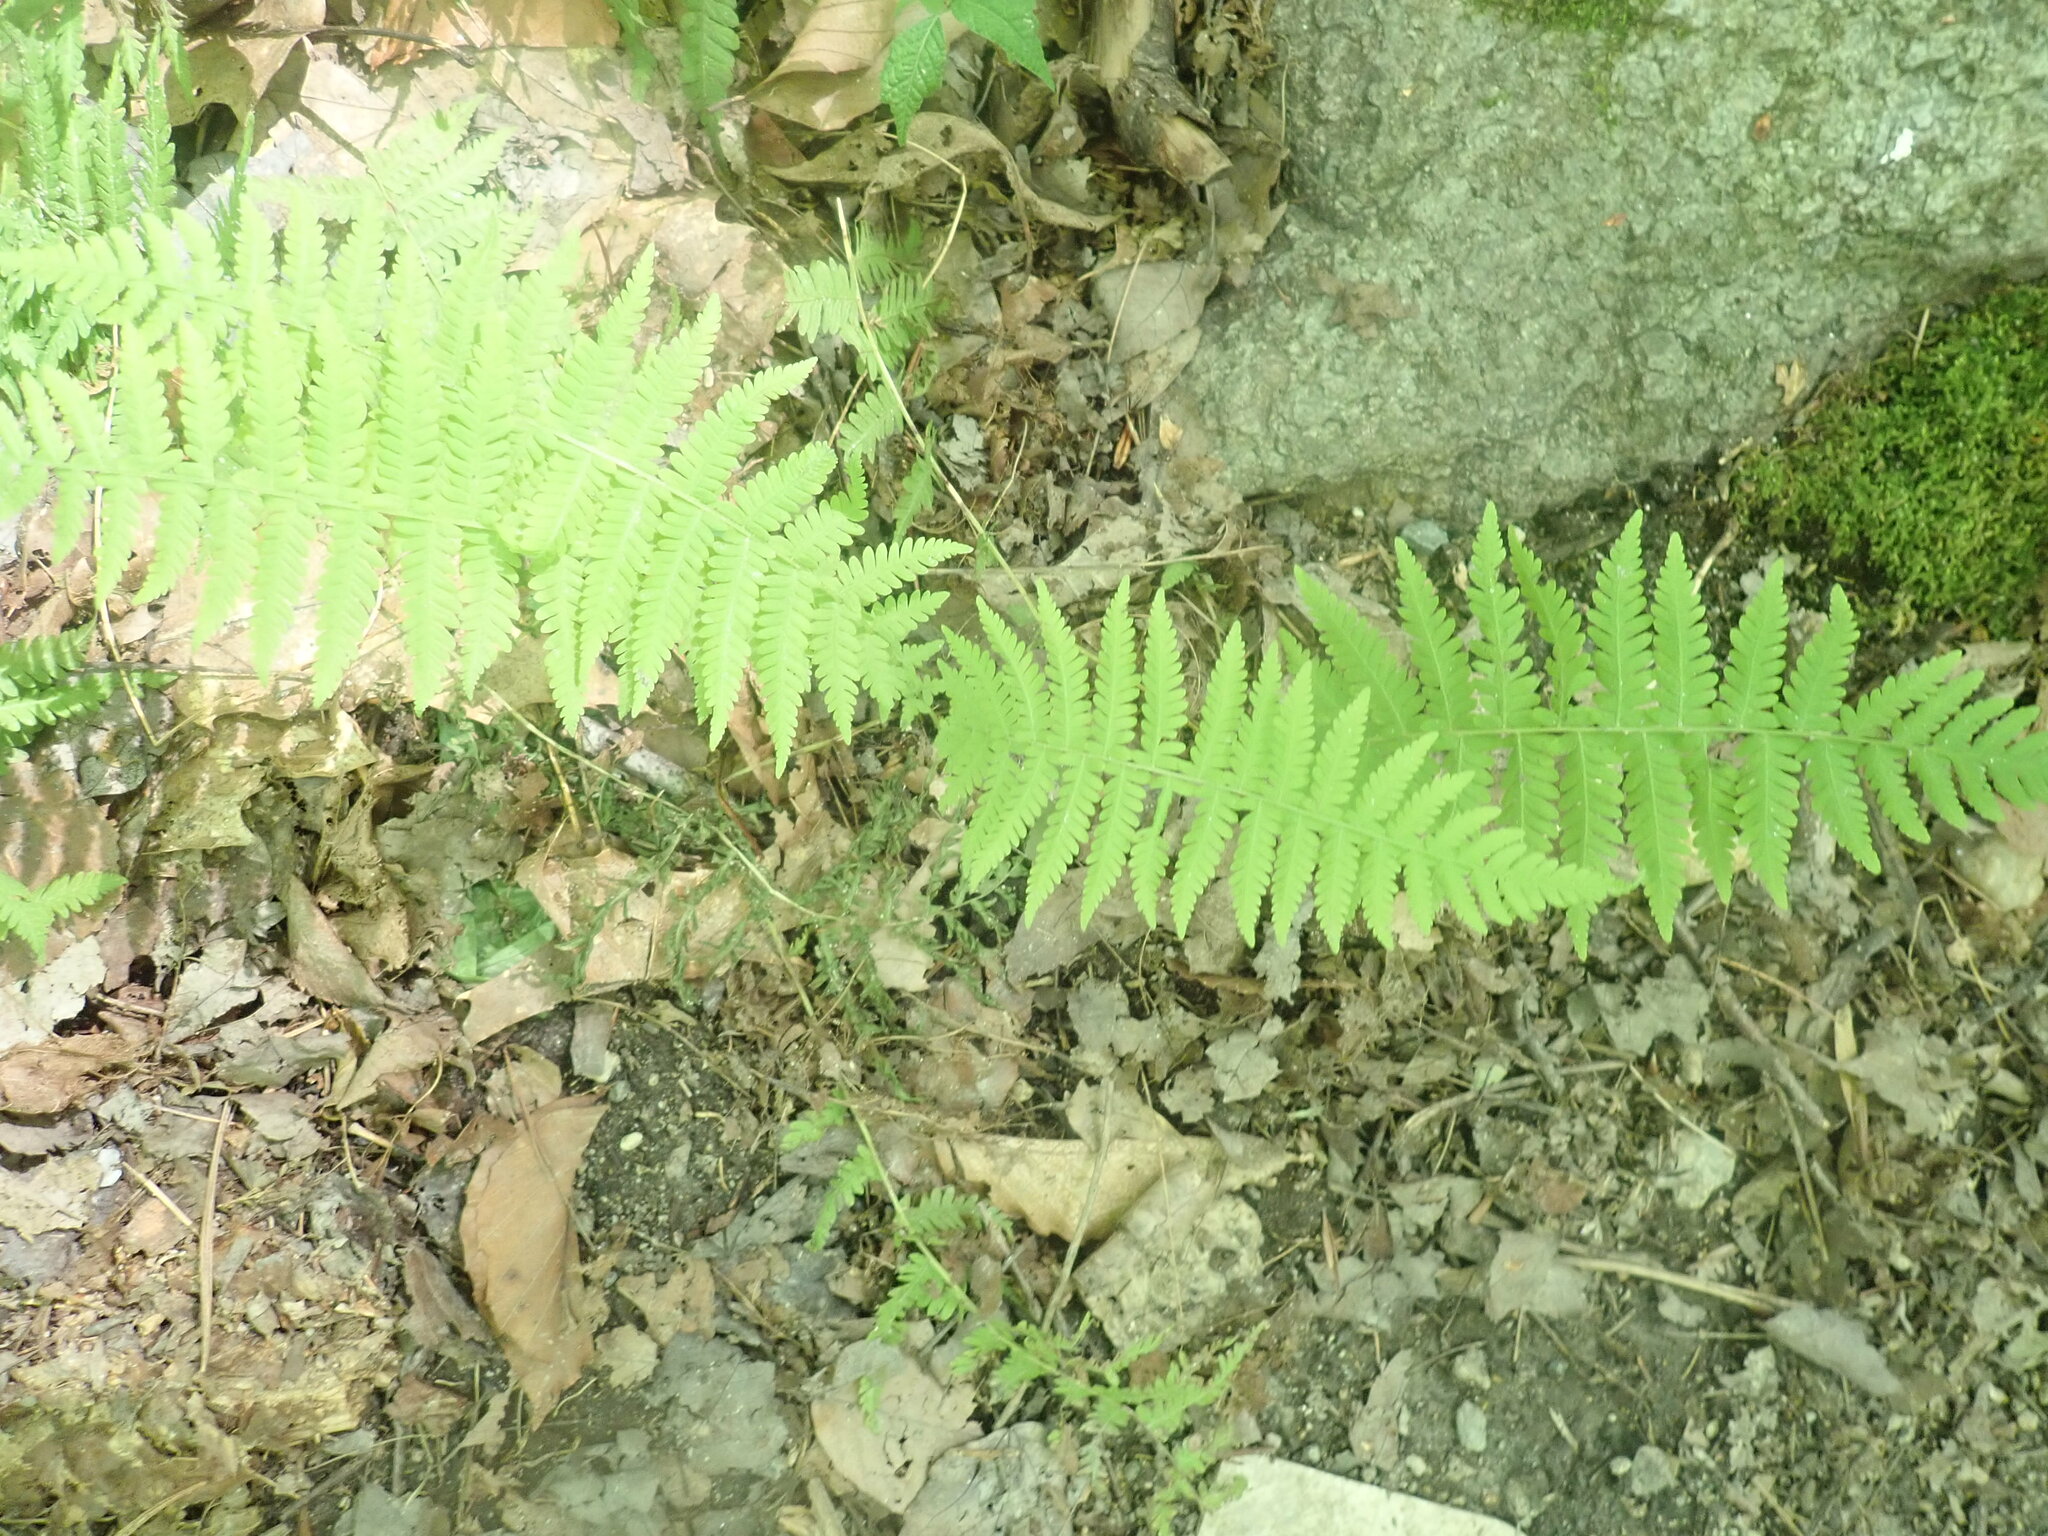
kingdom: Plantae
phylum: Tracheophyta
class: Polypodiopsida
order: Polypodiales
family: Thelypteridaceae
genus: Amauropelta
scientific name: Amauropelta noveboracensis
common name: New york fern
